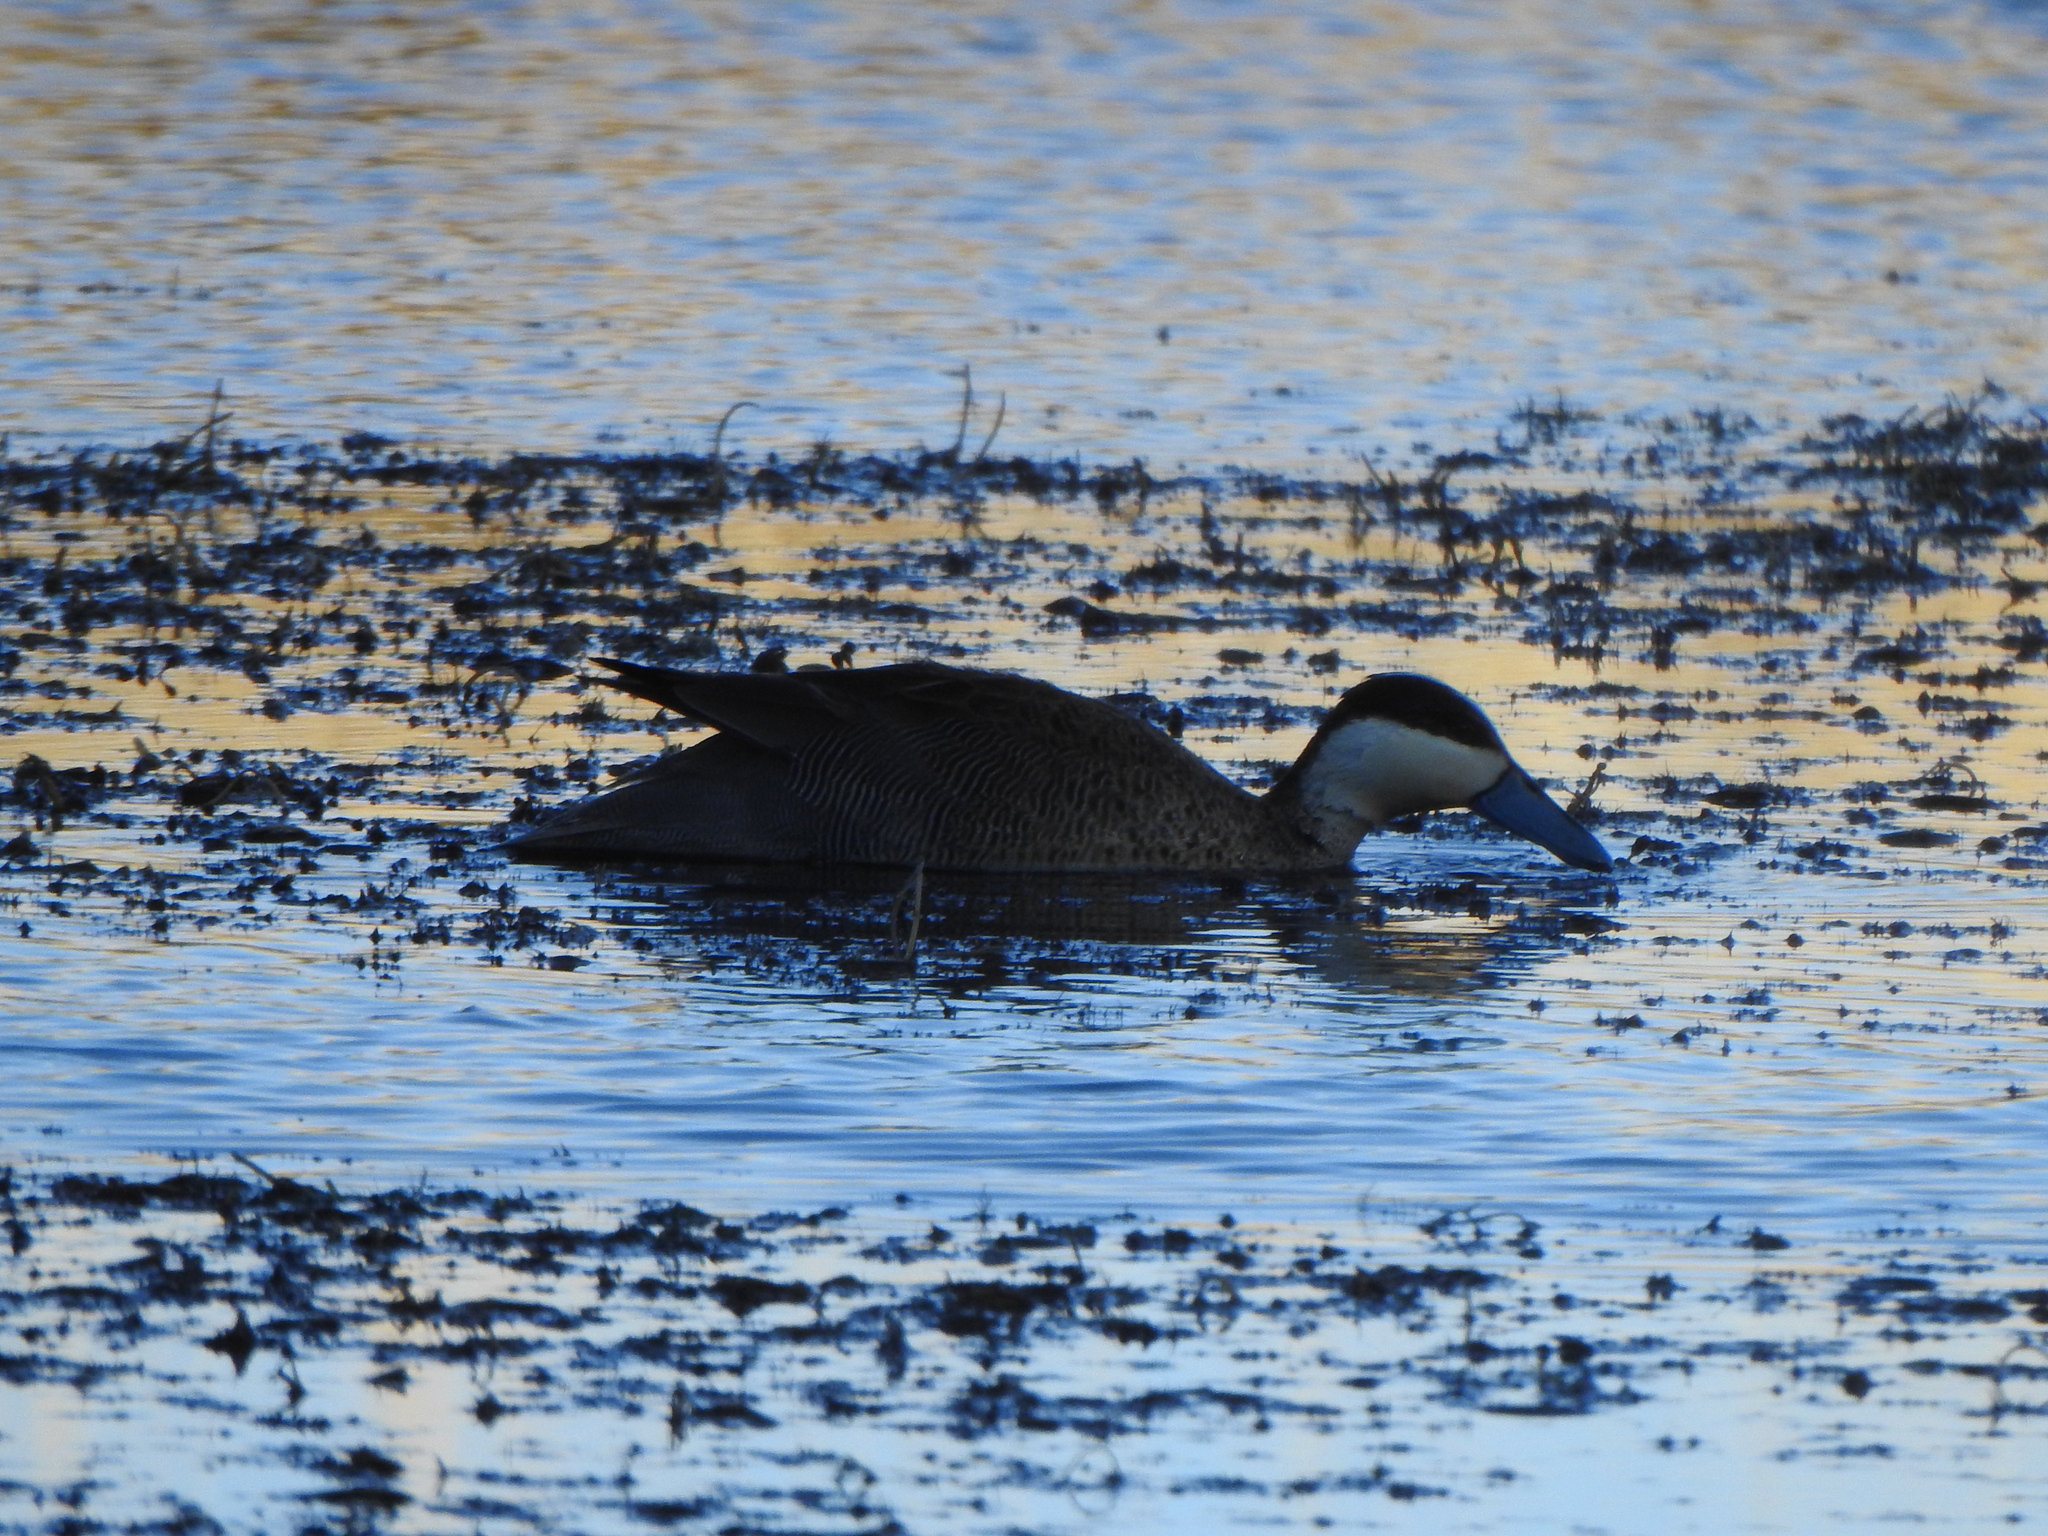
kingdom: Animalia
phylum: Chordata
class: Aves
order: Anseriformes
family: Anatidae
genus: Spatula
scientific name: Spatula puna
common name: Puna teal
